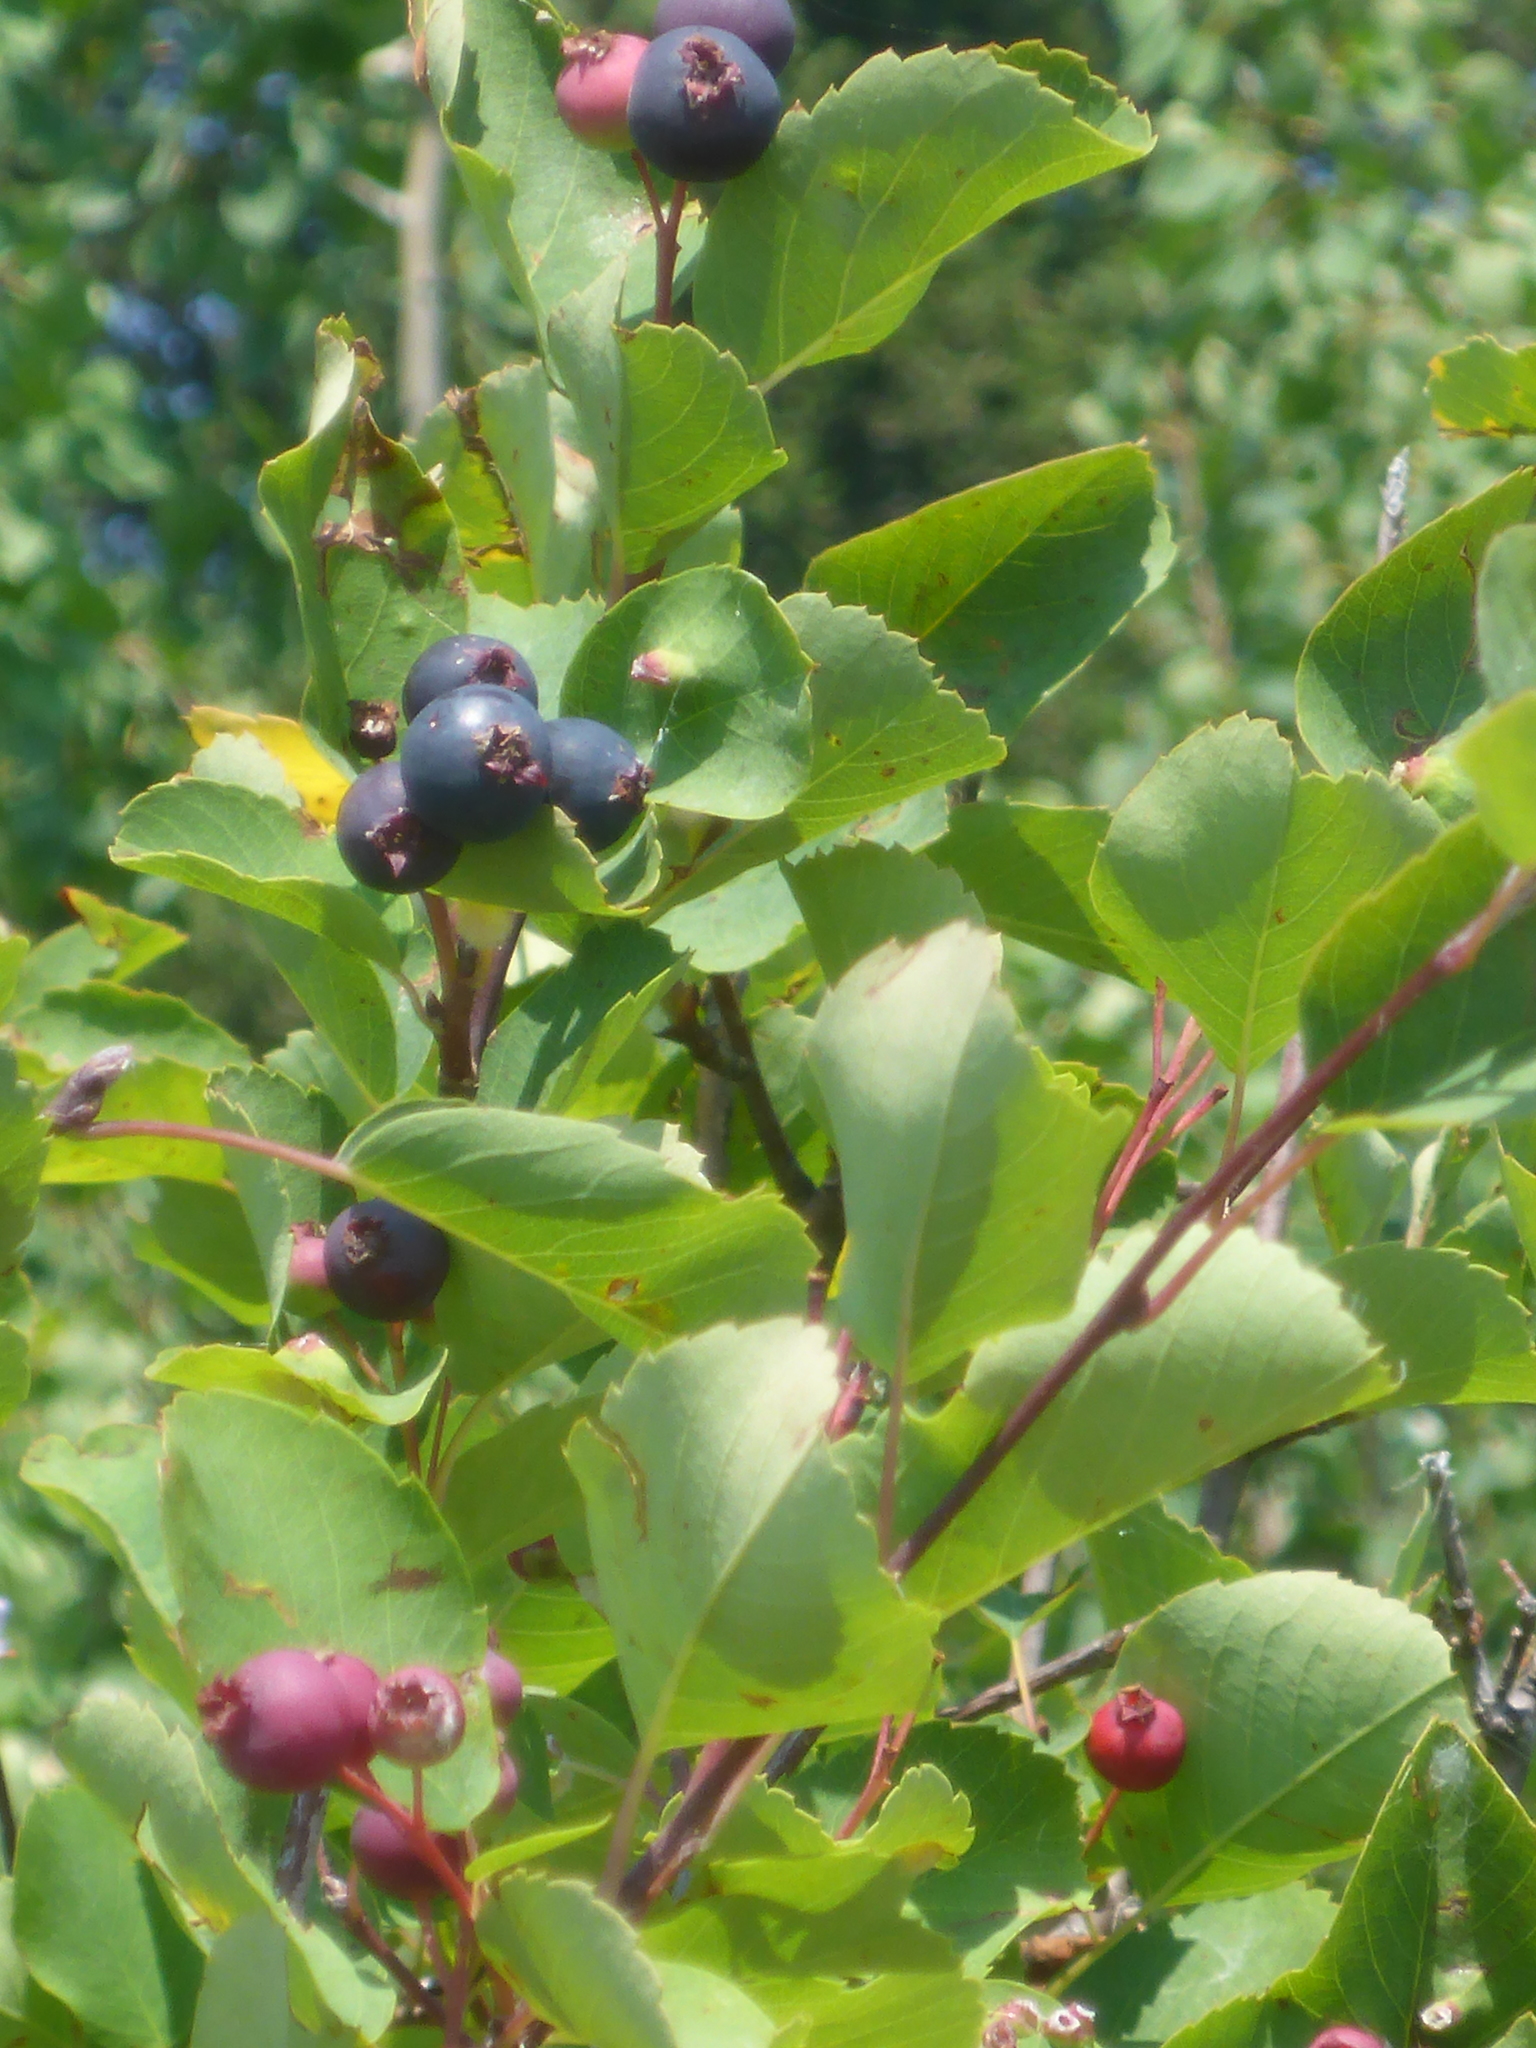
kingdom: Plantae
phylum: Tracheophyta
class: Magnoliopsida
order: Rosales
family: Rosaceae
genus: Amelanchier
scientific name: Amelanchier alnifolia
